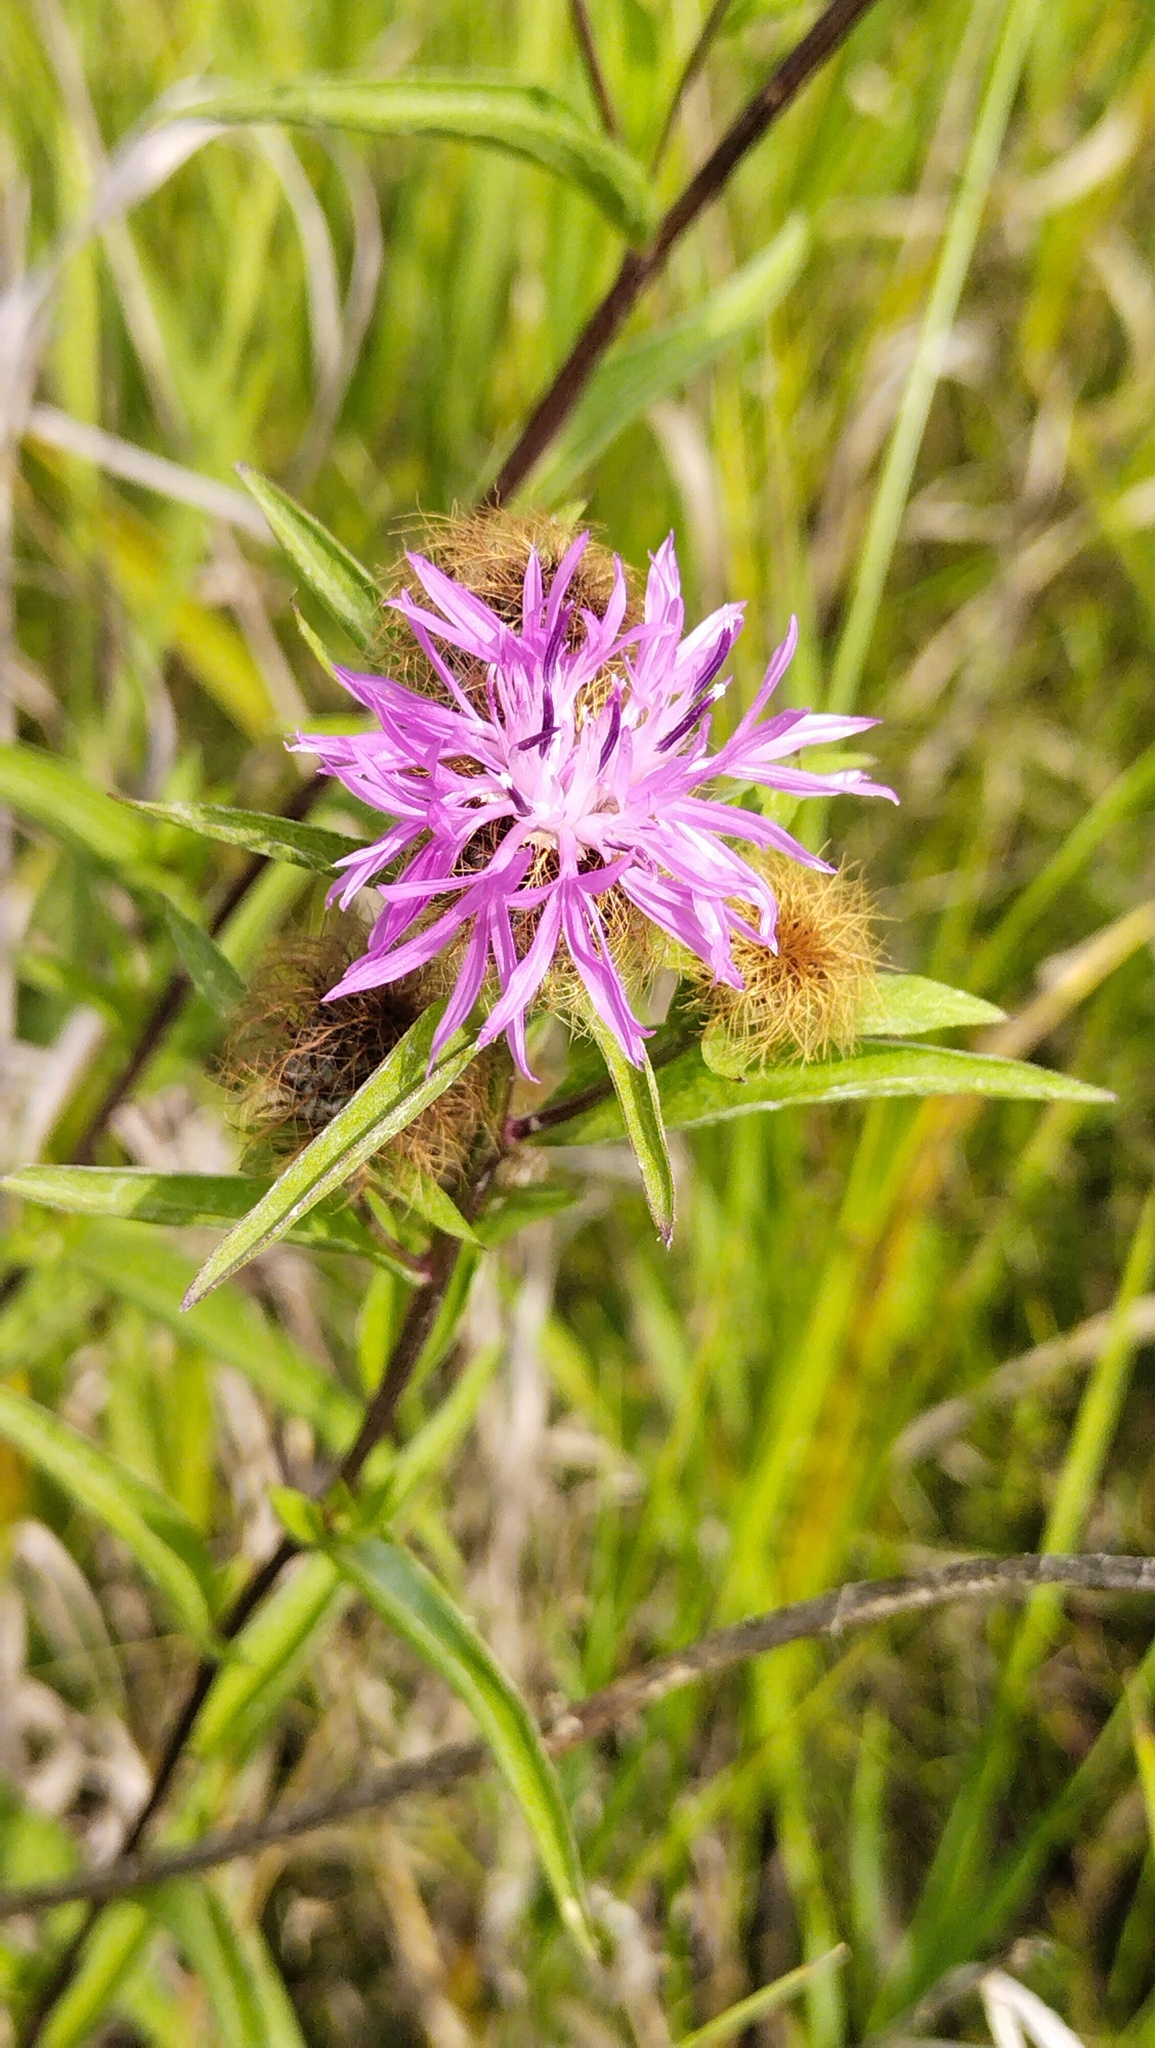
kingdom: Plantae
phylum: Tracheophyta
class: Magnoliopsida
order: Asterales
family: Asteraceae
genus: Centaurea
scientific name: Centaurea phrygia
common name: Wig knapweed
